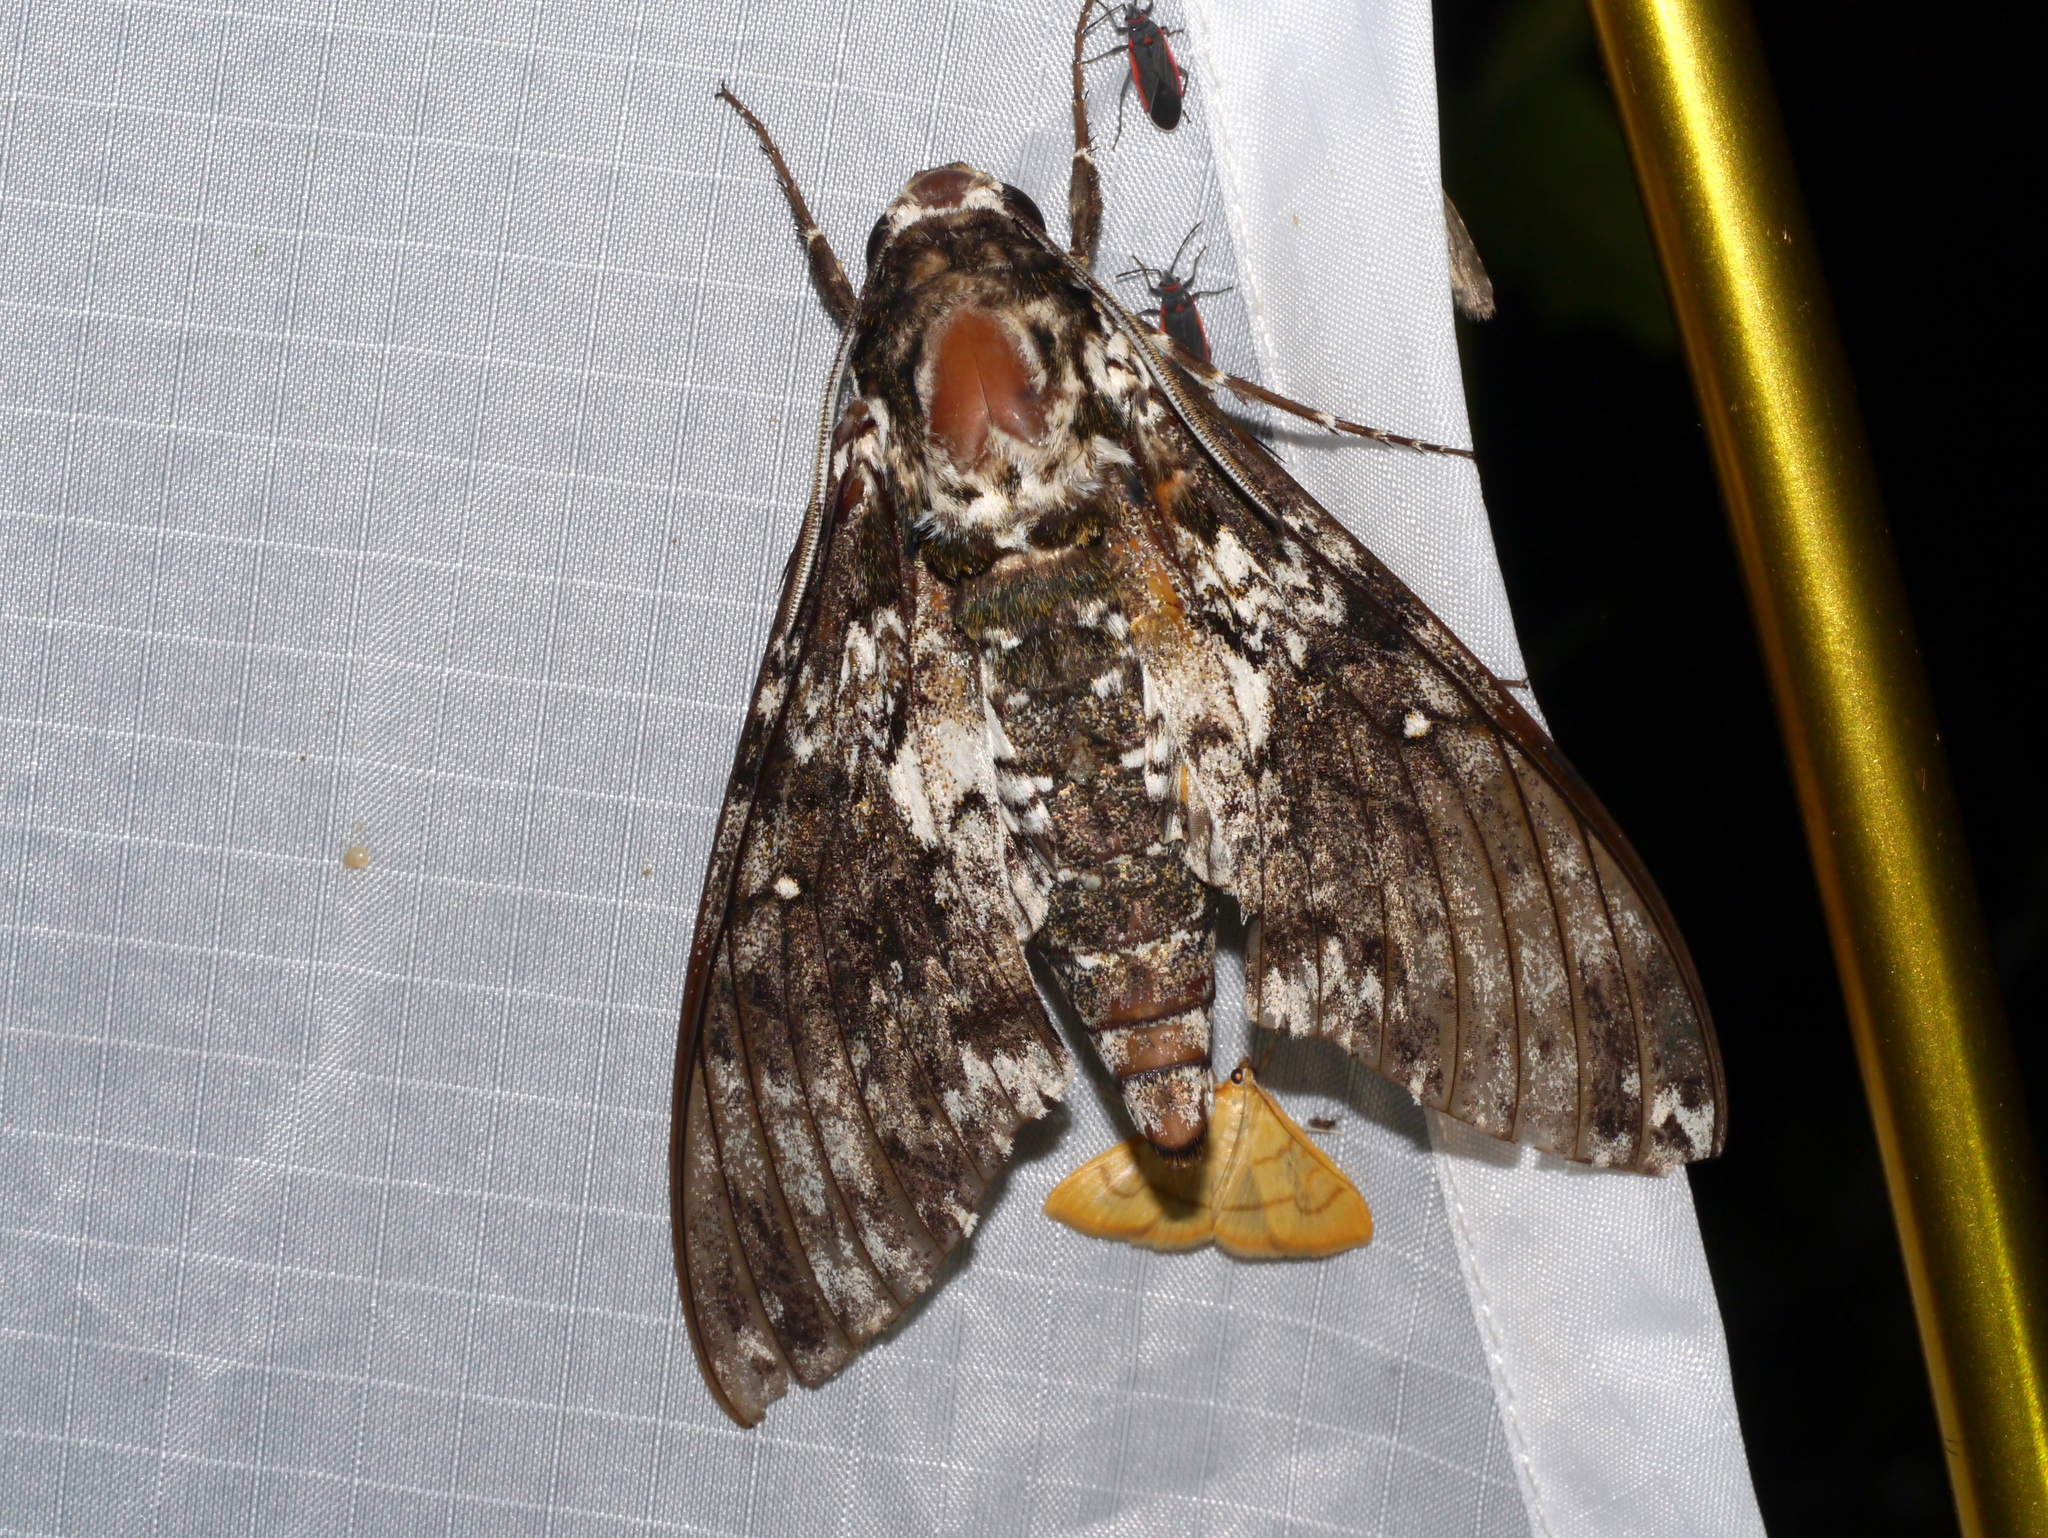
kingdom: Animalia
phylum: Arthropoda
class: Insecta
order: Lepidoptera
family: Sphingidae
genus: Manduca
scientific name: Manduca rustica
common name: Rustic sphinx
